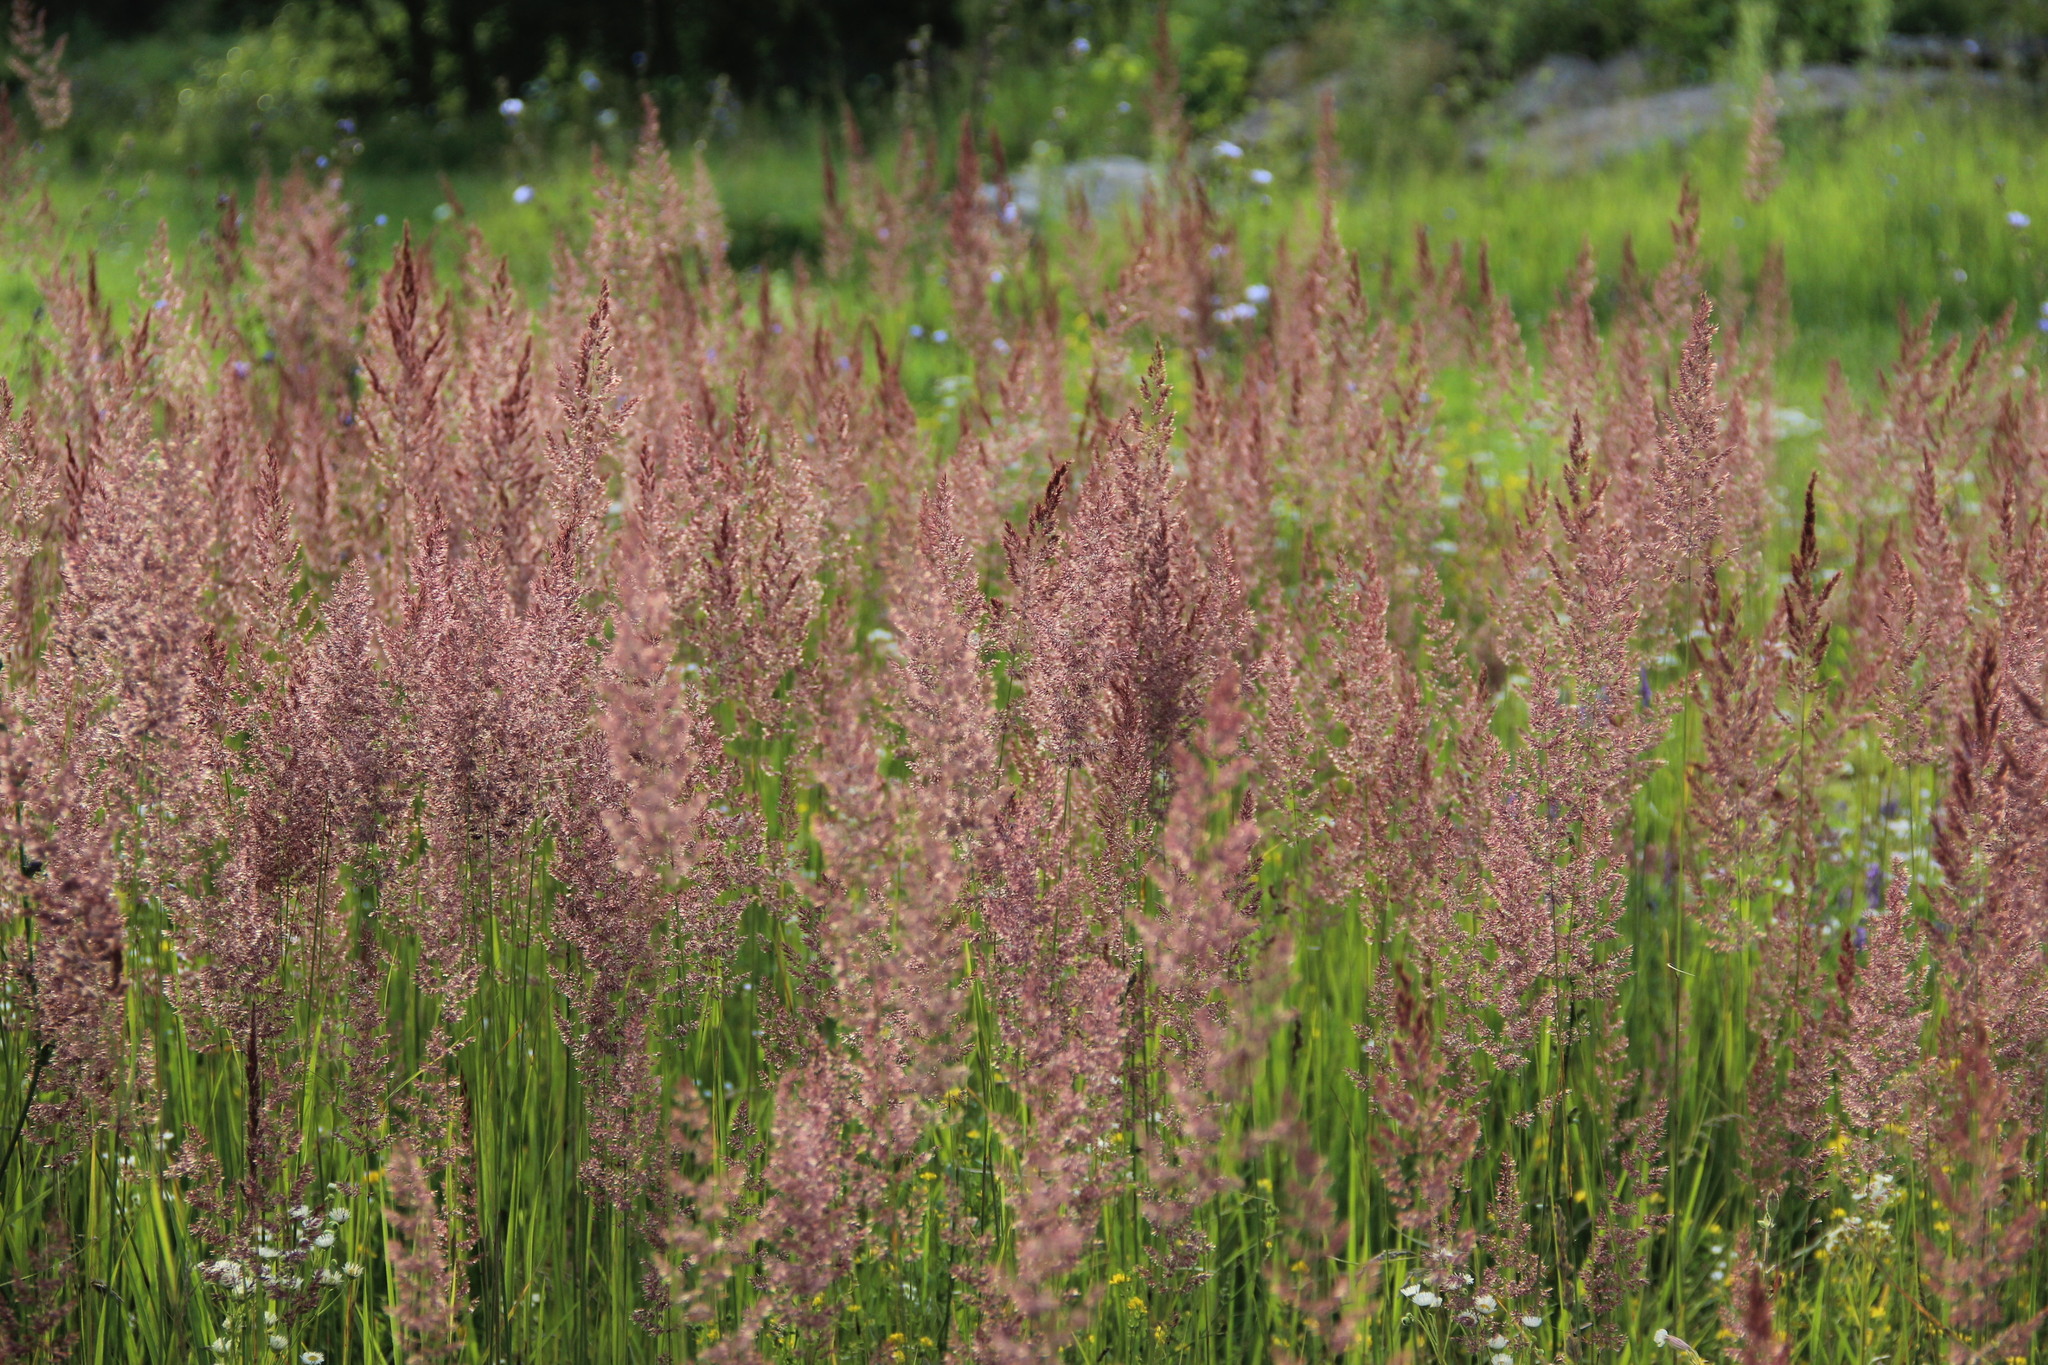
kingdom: Plantae
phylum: Tracheophyta
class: Liliopsida
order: Poales
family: Poaceae
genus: Calamagrostis
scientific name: Calamagrostis epigejos
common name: Wood small-reed
